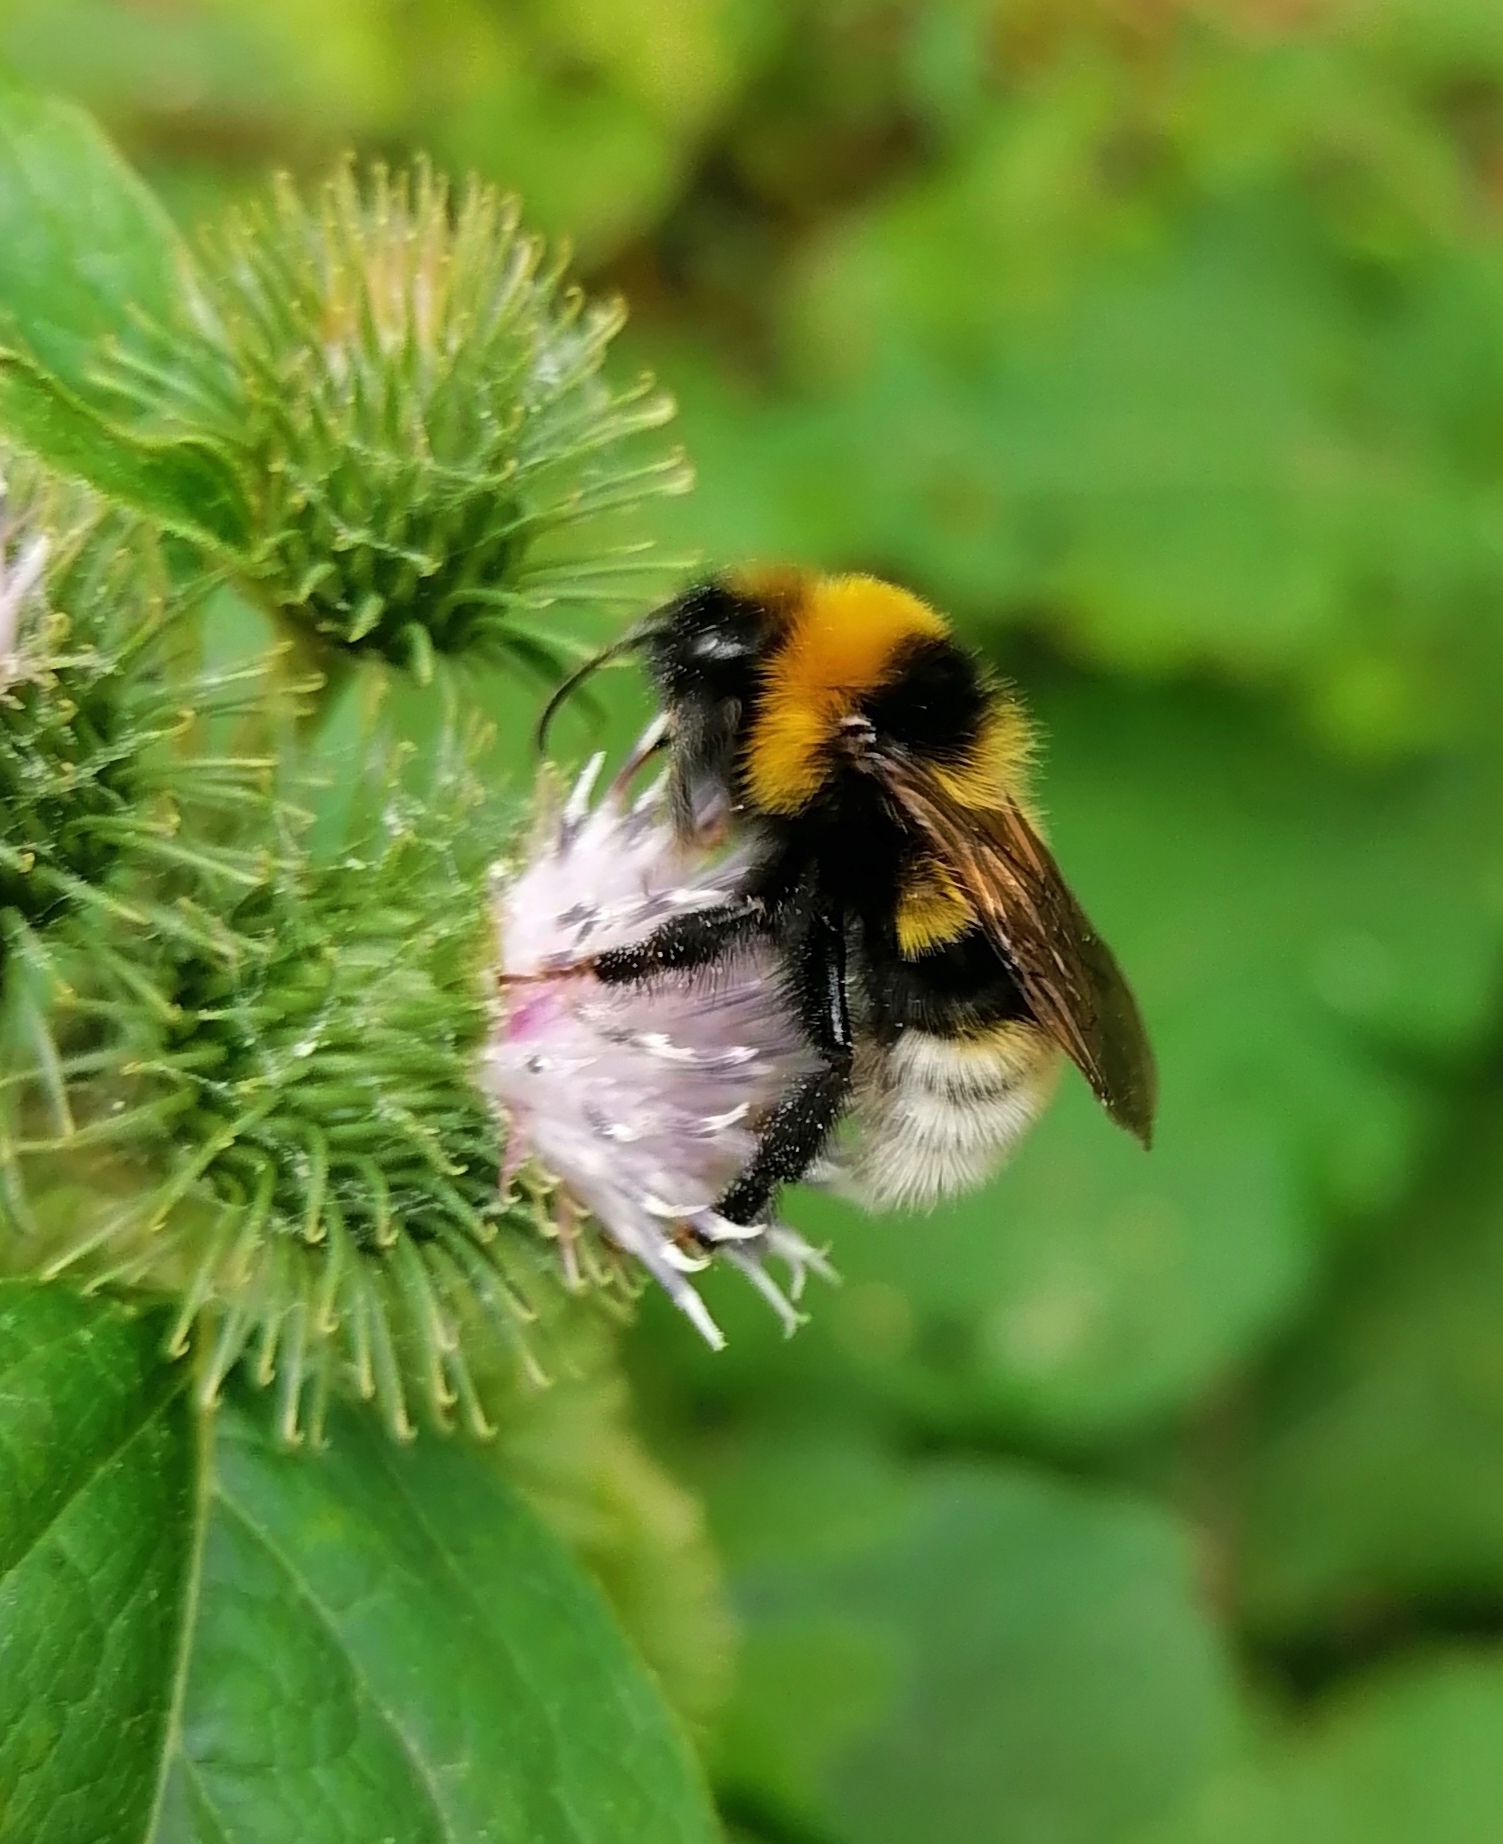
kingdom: Animalia
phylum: Arthropoda
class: Insecta
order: Hymenoptera
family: Apidae
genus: Bombus
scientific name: Bombus bohemicus
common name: Gypsy cuckoo bee
